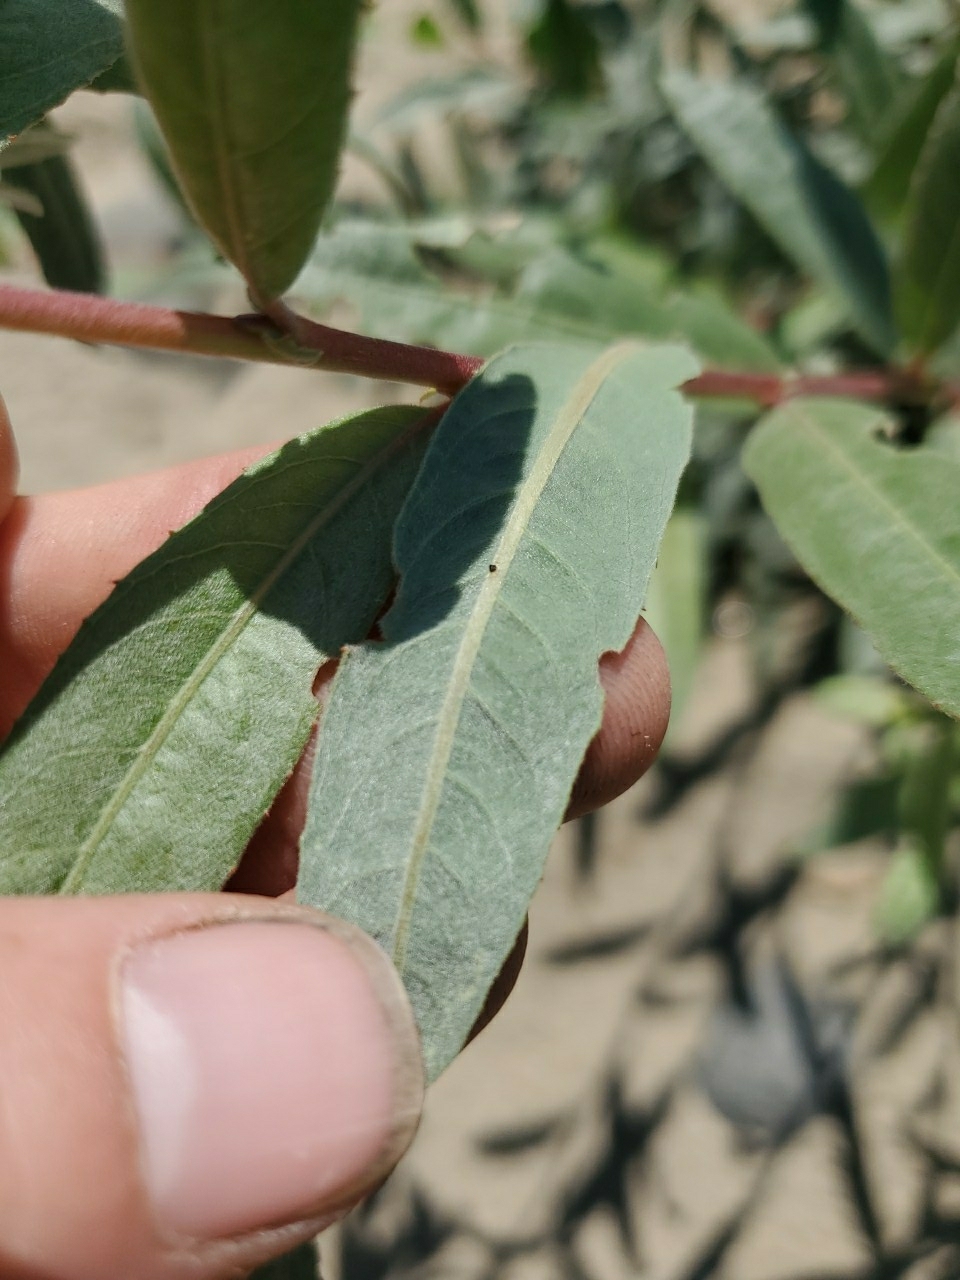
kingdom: Plantae
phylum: Tracheophyta
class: Magnoliopsida
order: Malpighiales
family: Salicaceae
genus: Salix
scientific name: Salix melanopsis
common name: Dusky willow
